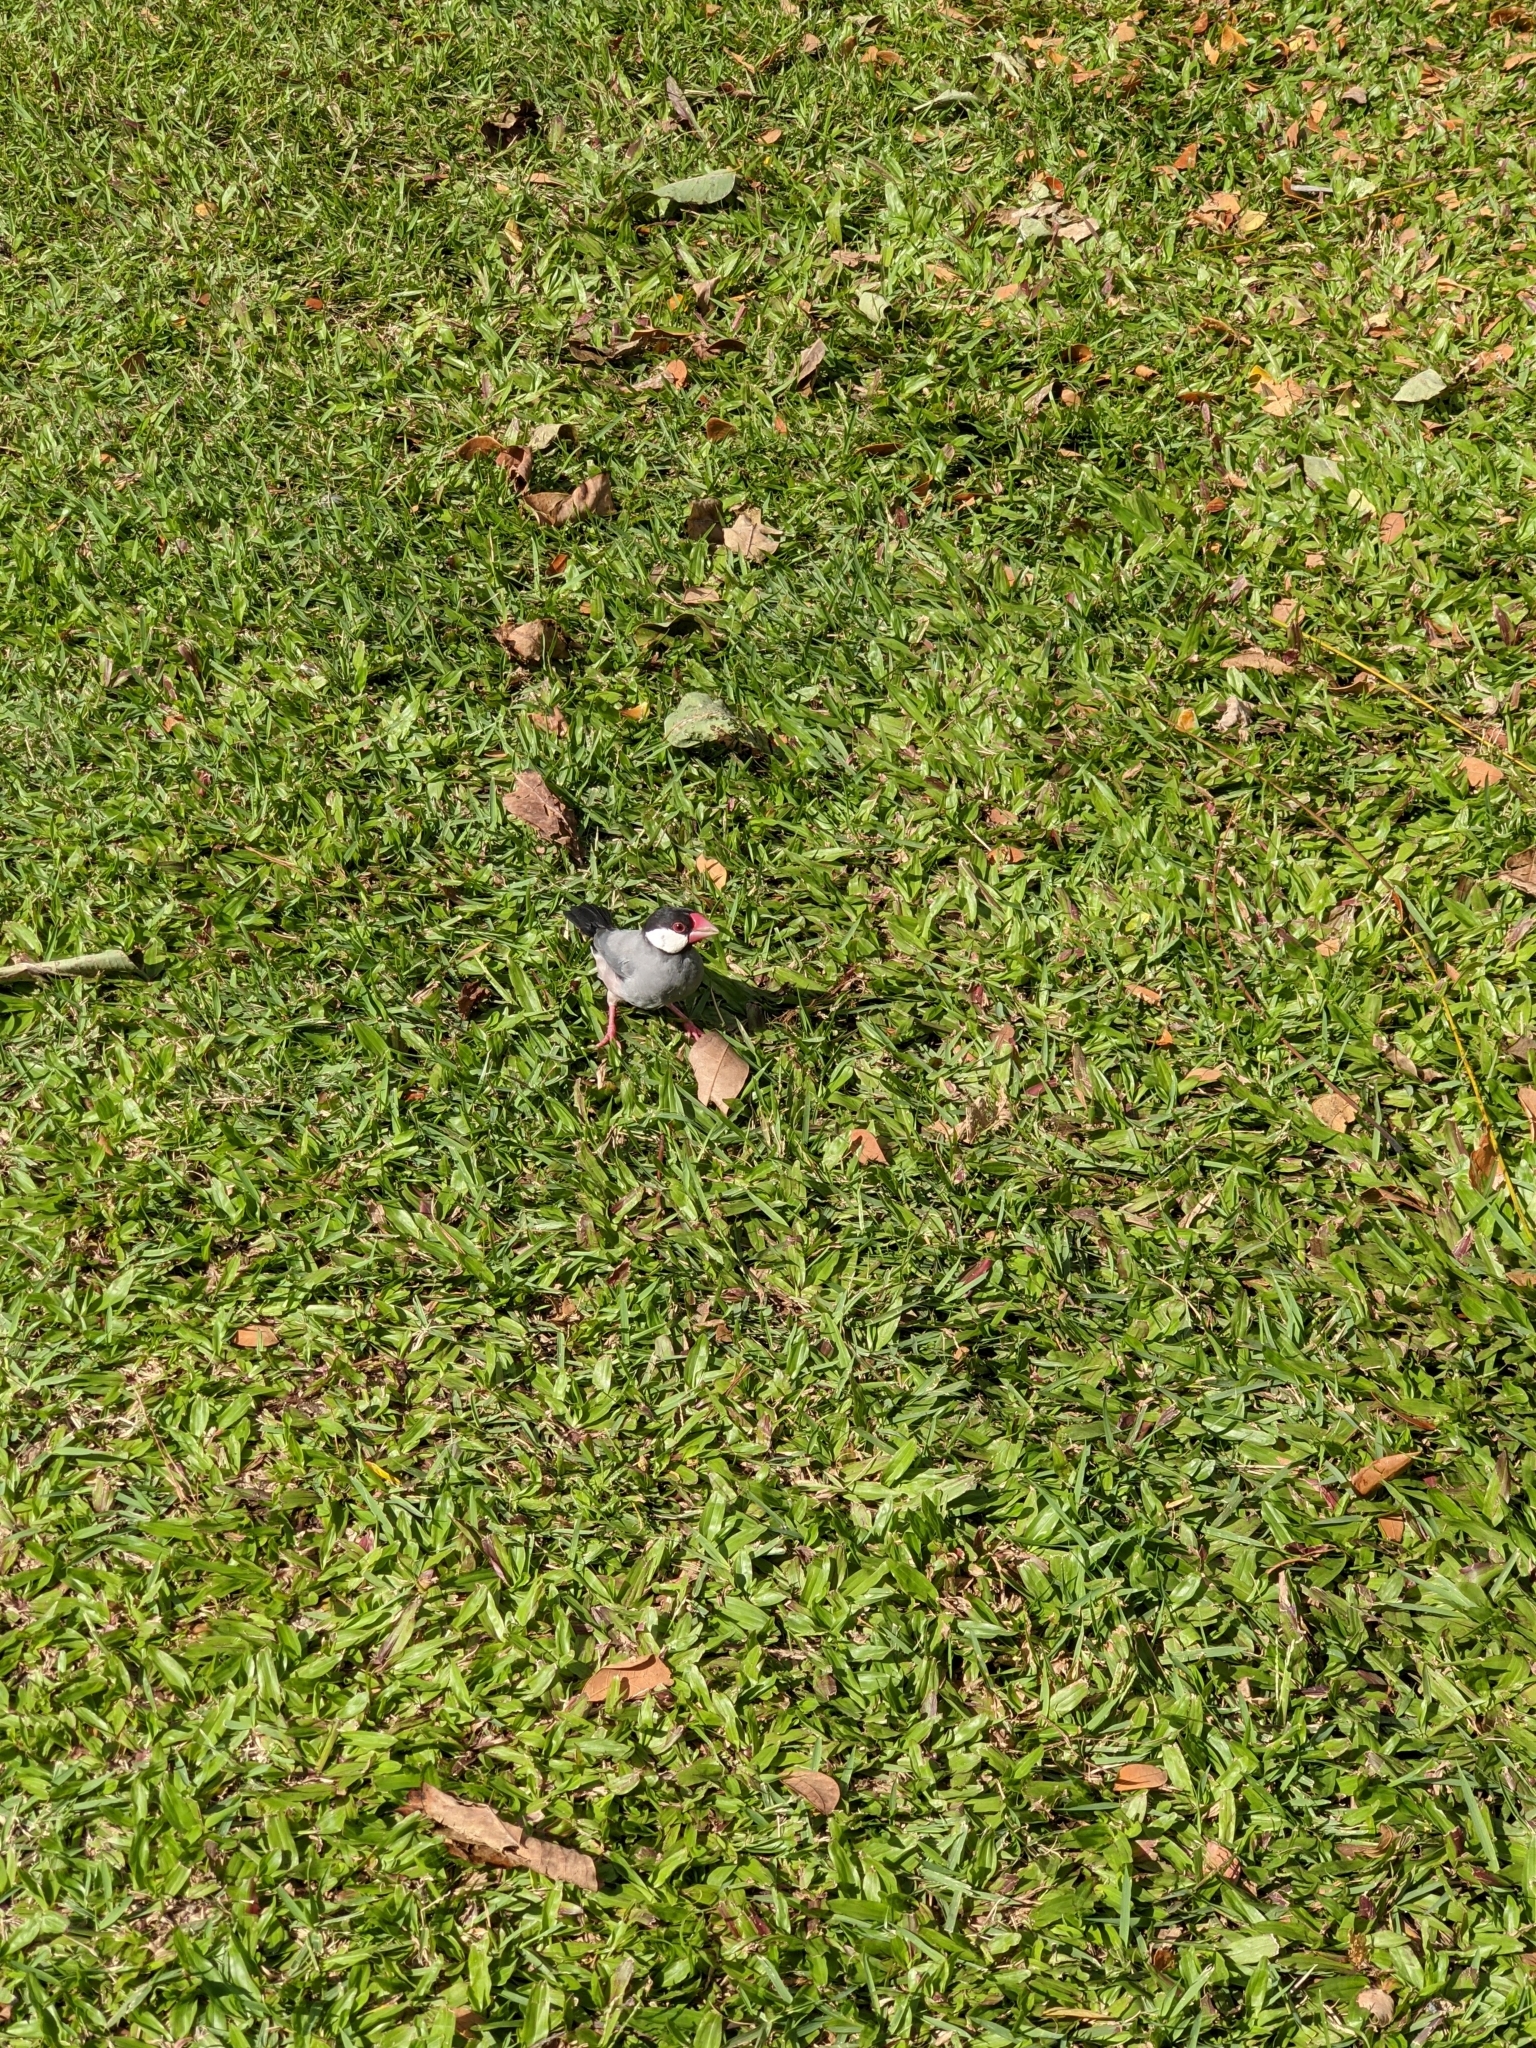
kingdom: Animalia
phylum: Chordata
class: Aves
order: Passeriformes
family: Estrildidae
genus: Lonchura
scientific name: Lonchura oryzivora
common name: Java sparrow
